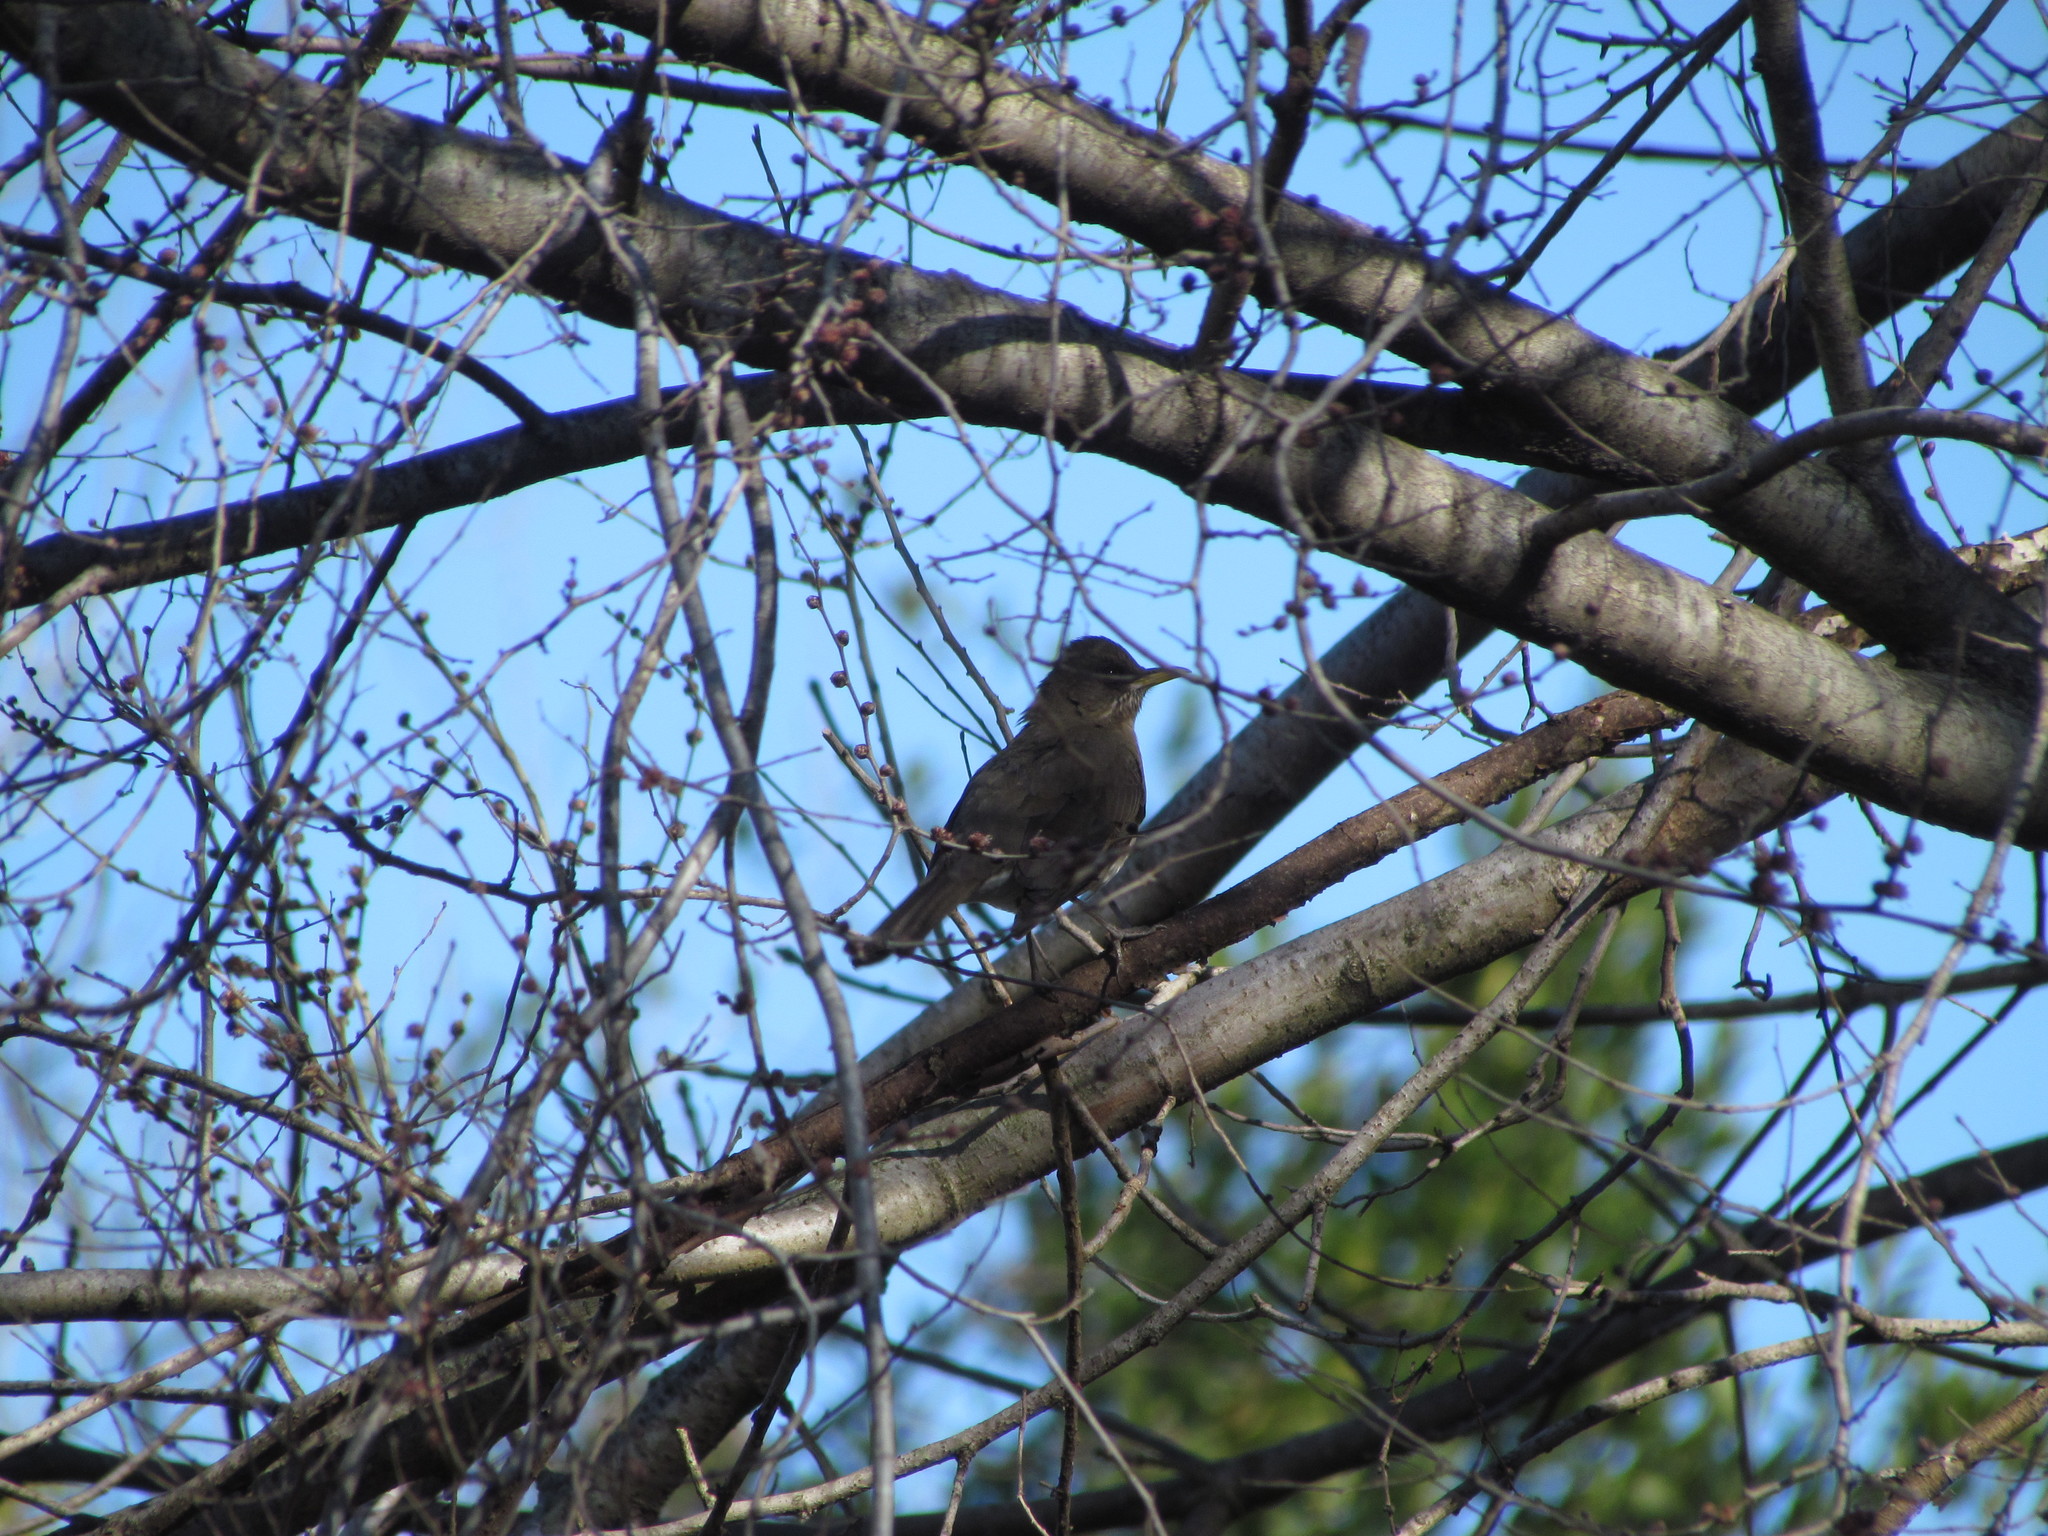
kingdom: Animalia
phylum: Chordata
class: Aves
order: Passeriformes
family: Turdidae
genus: Turdus
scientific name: Turdus amaurochalinus
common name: Creamy-bellied thrush
